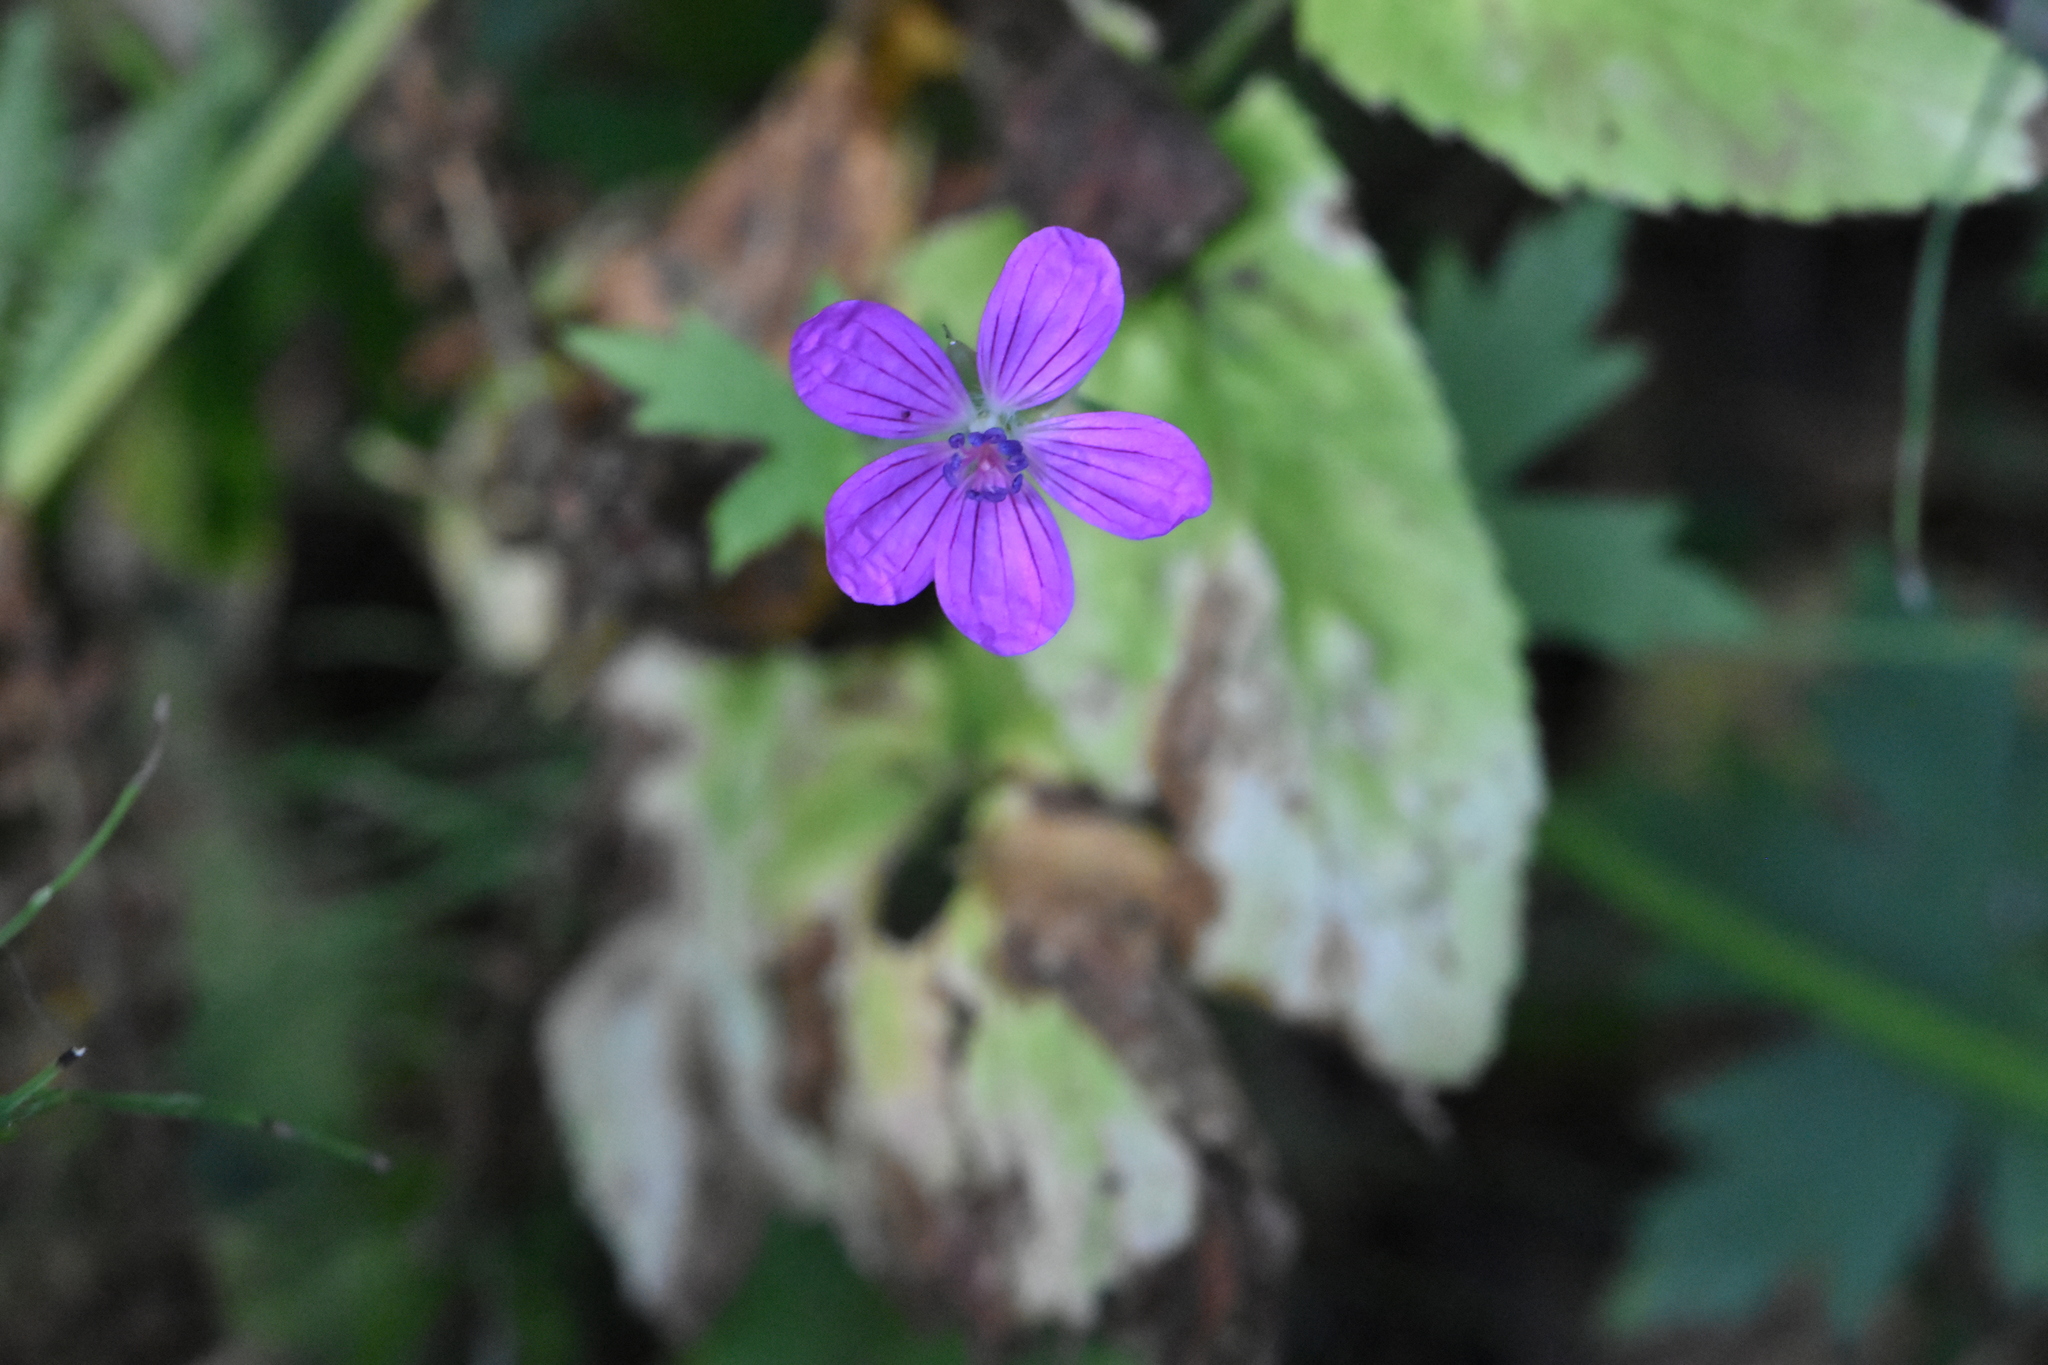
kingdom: Plantae
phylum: Tracheophyta
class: Magnoliopsida
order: Geraniales
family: Geraniaceae
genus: Geranium
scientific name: Geranium palustre
